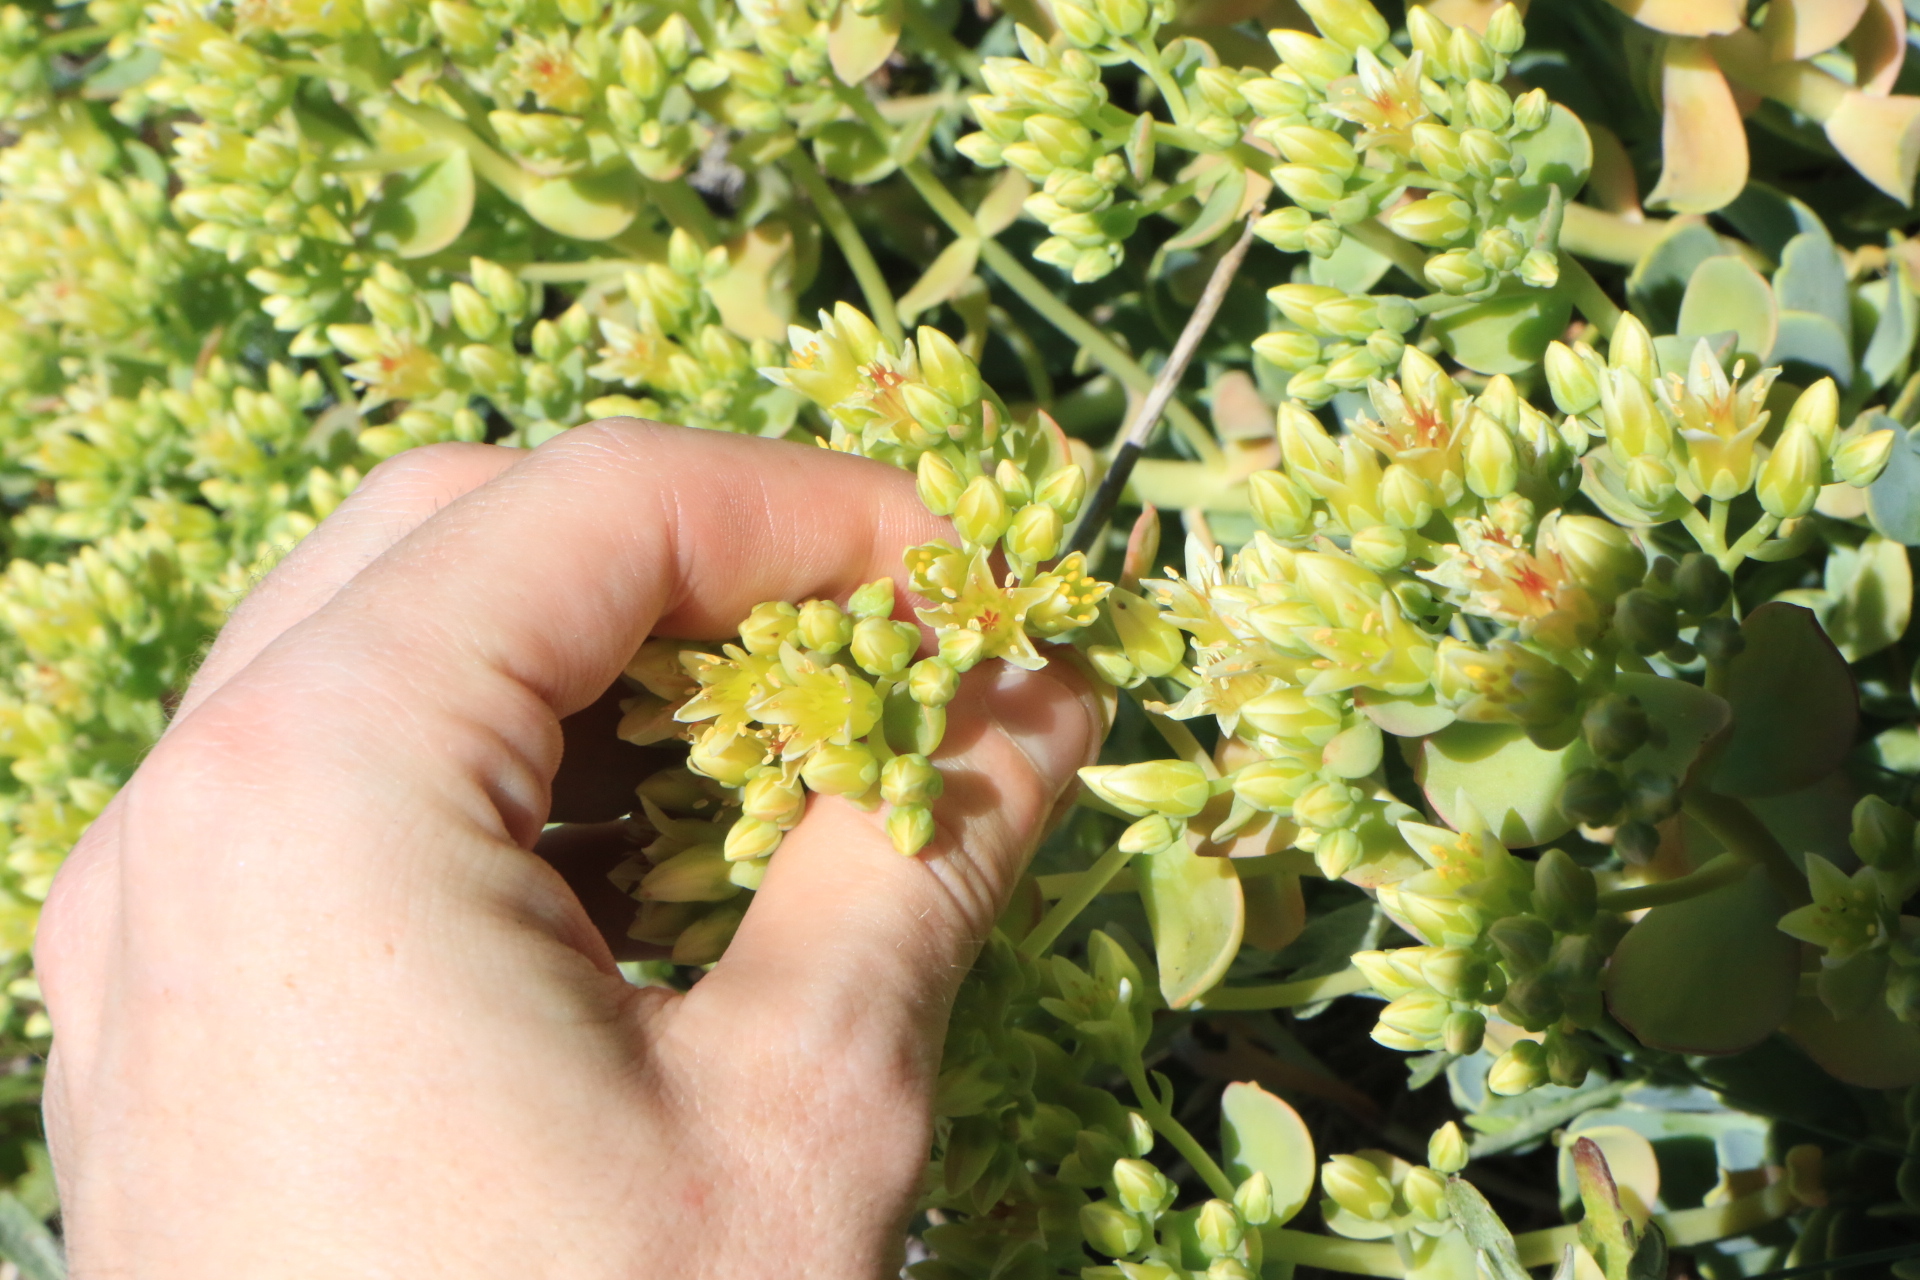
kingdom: Plantae
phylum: Tracheophyta
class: Magnoliopsida
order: Saxifragales
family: Crassulaceae
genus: Sedum
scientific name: Sedum oregonense
